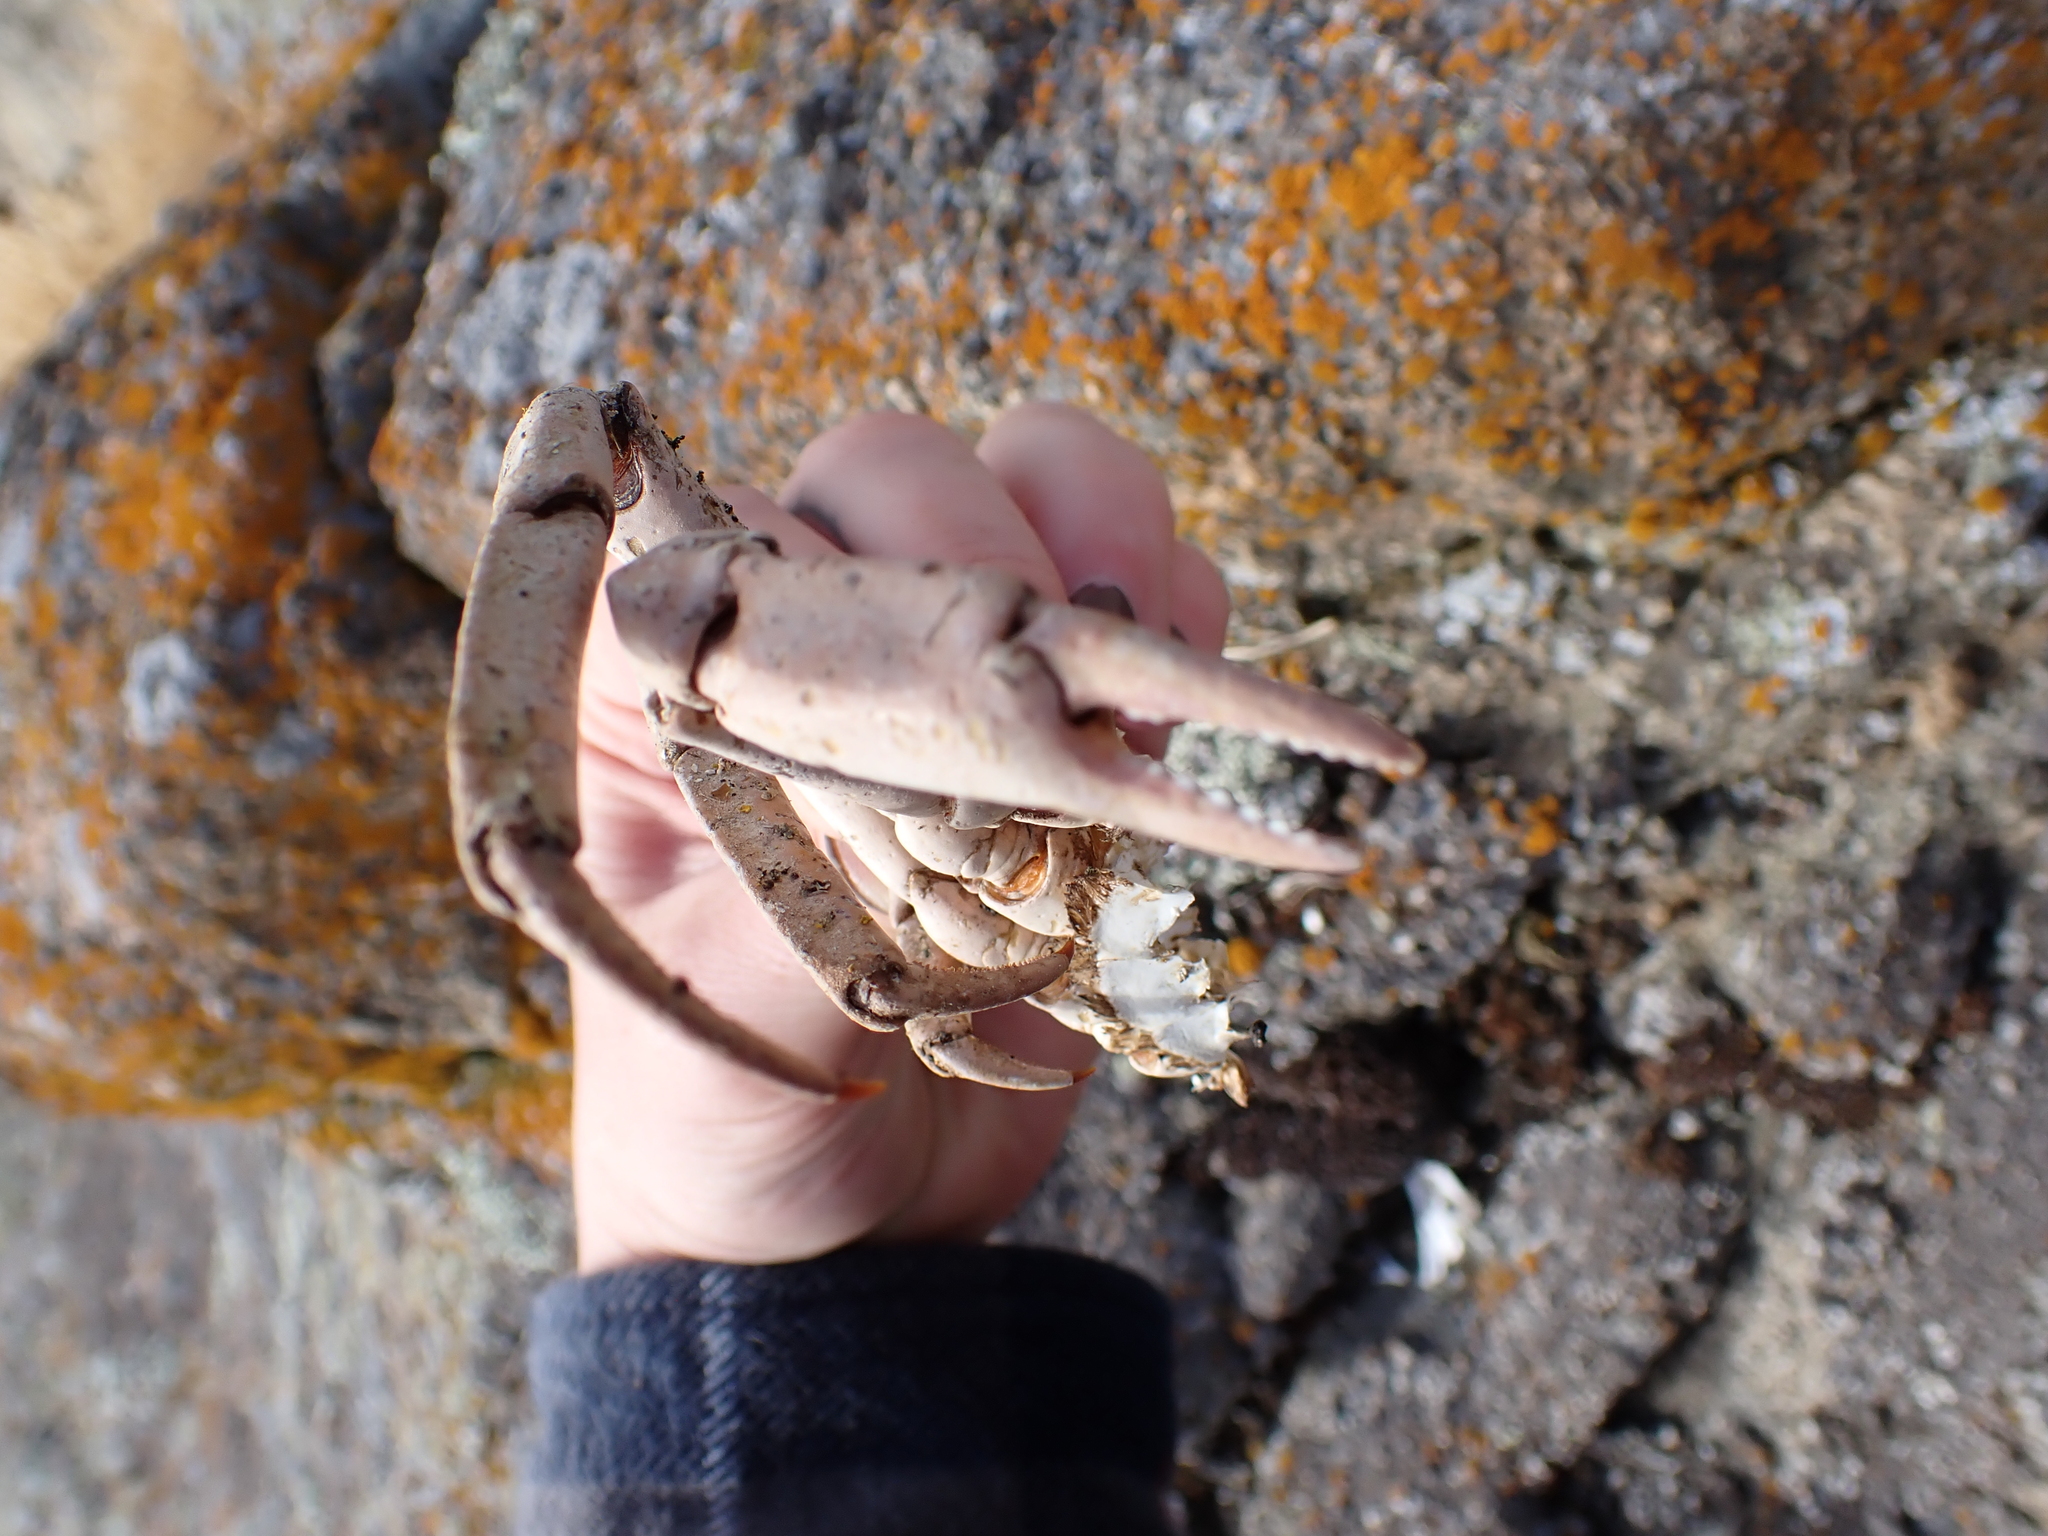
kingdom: Animalia
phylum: Arthropoda
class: Malacostraca
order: Decapoda
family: Epialtidae
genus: Pugettia
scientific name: Pugettia producta
